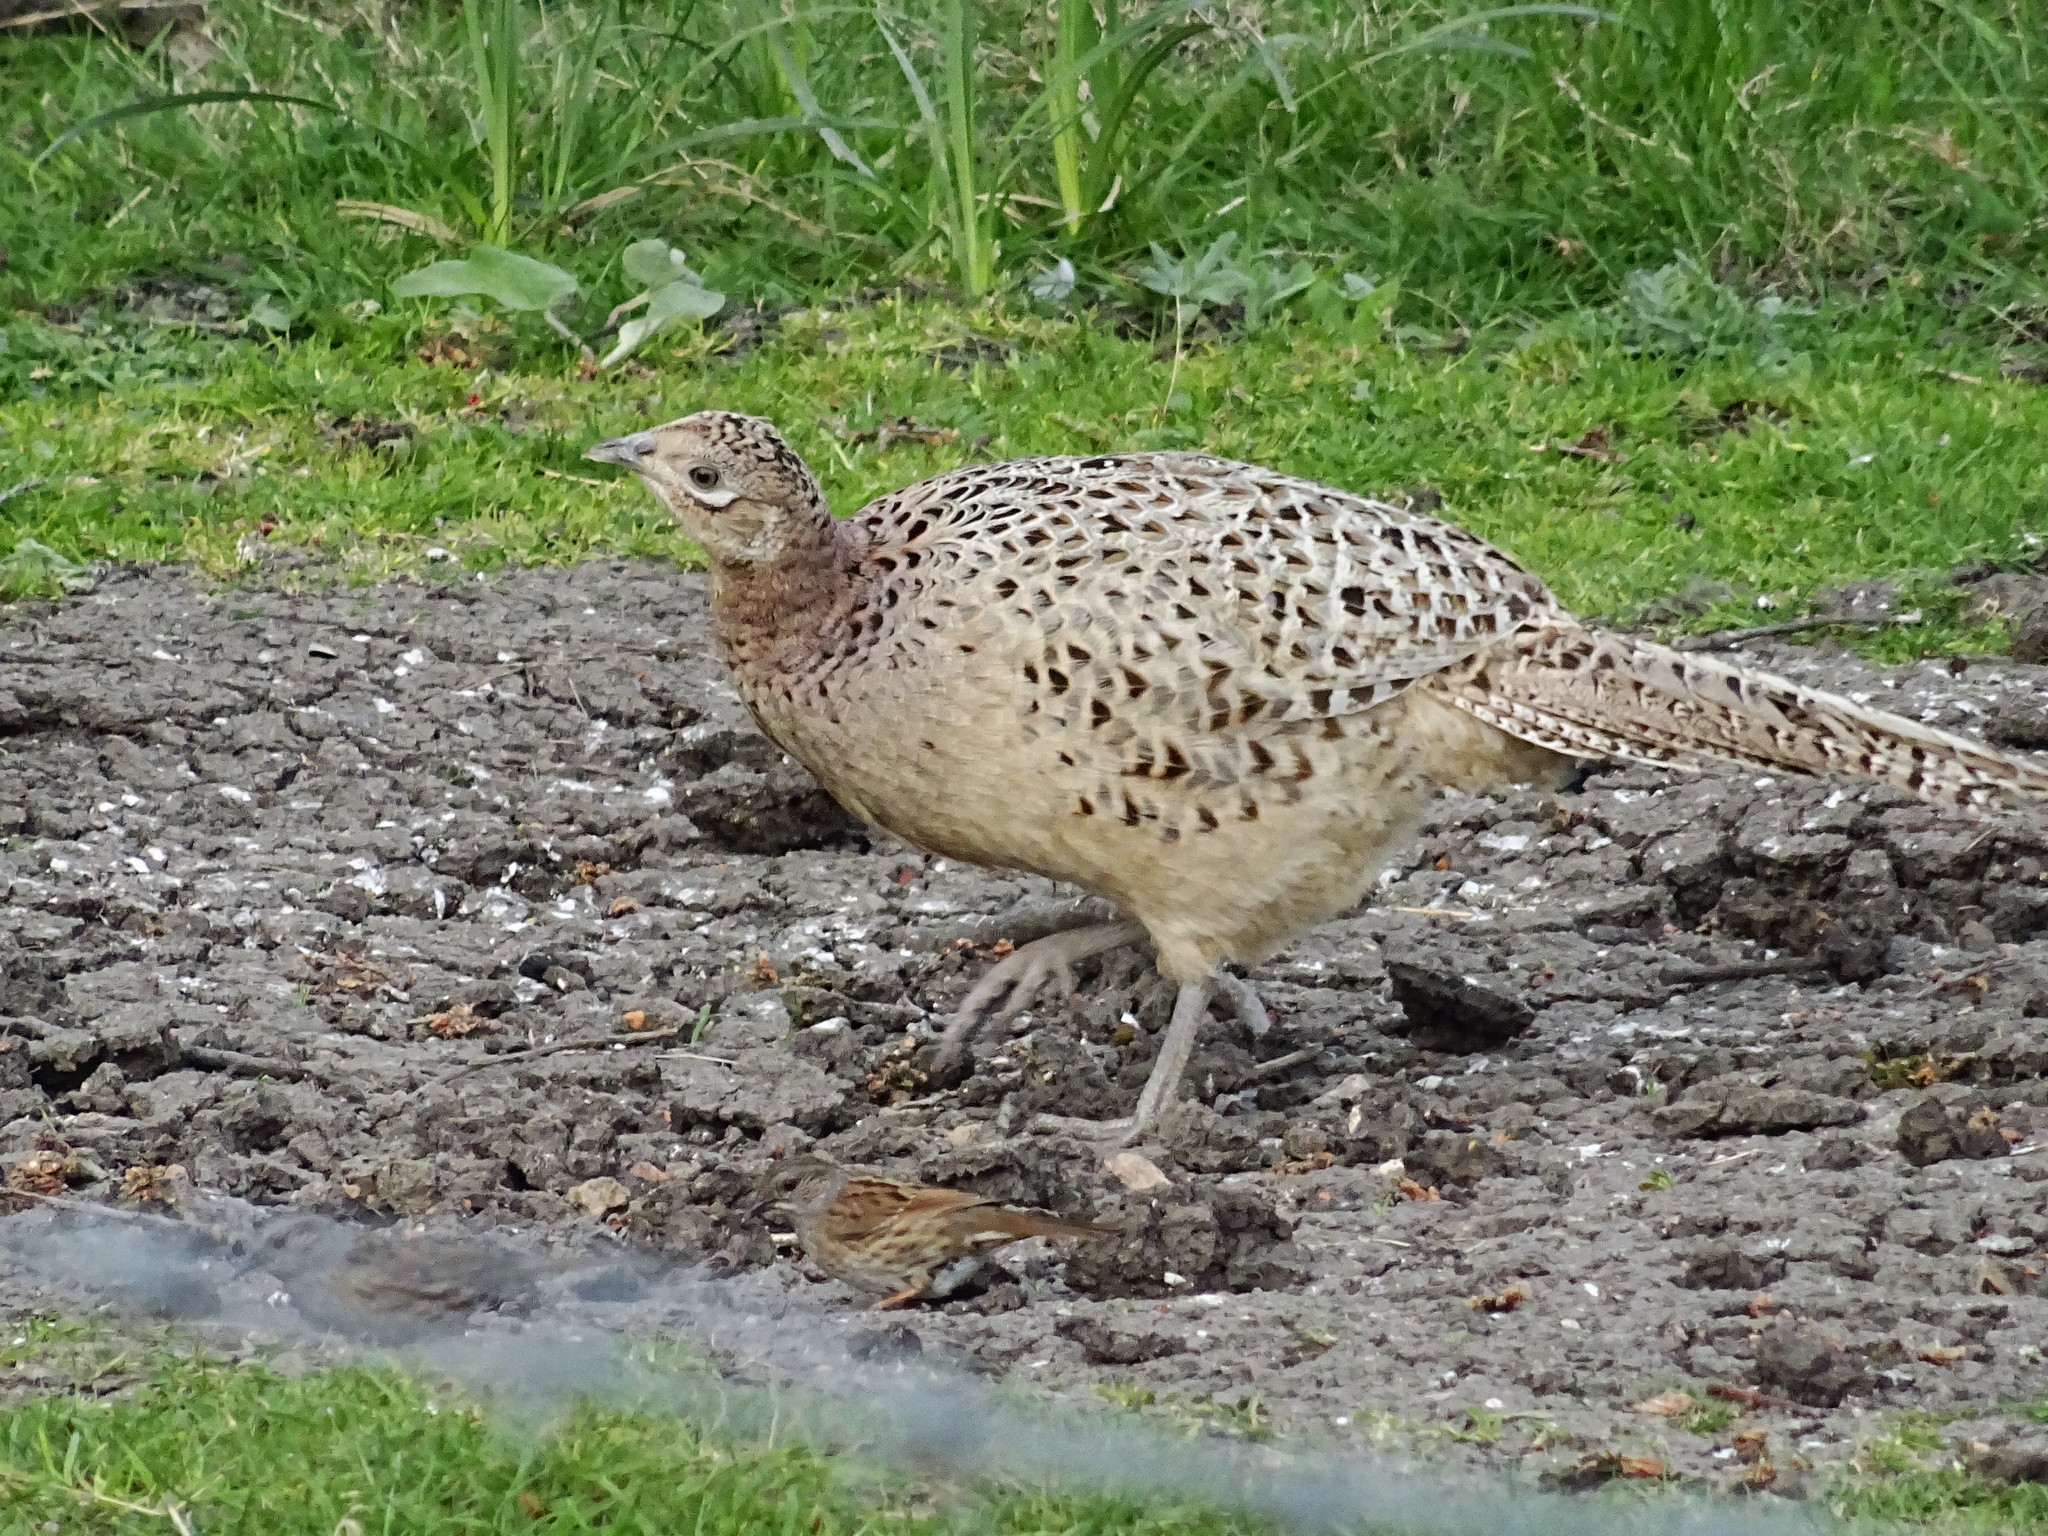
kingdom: Animalia
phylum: Chordata
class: Aves
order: Galliformes
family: Phasianidae
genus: Phasianus
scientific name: Phasianus colchicus
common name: Common pheasant
